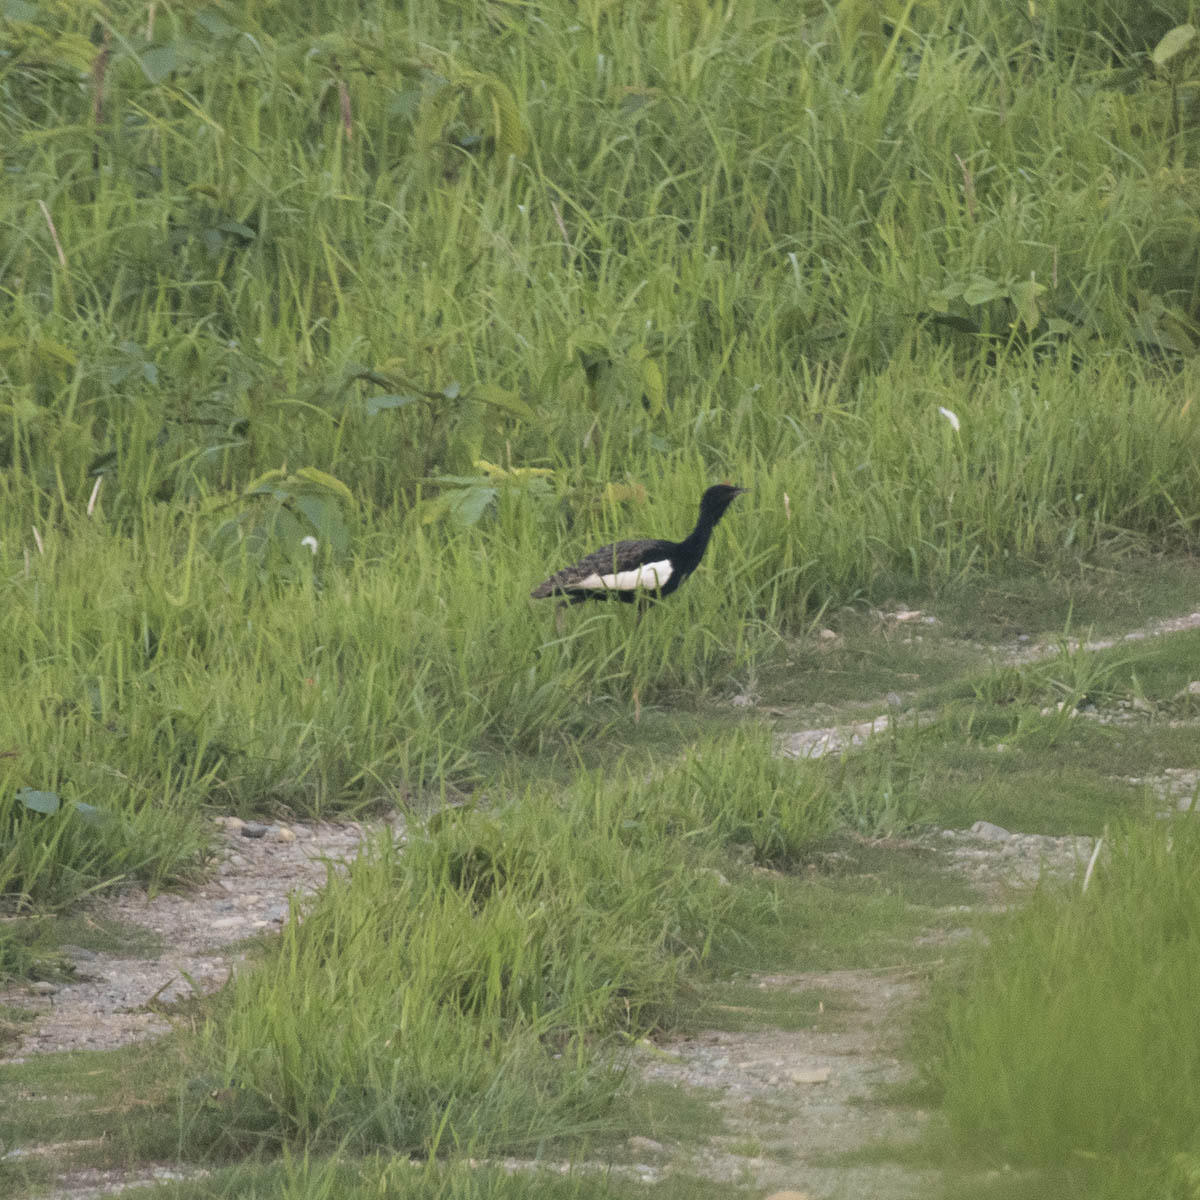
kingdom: Animalia
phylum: Chordata
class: Aves
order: Otidiformes
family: Otididae
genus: Houbaropsis
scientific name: Houbaropsis bengalensis
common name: Bengal florican
